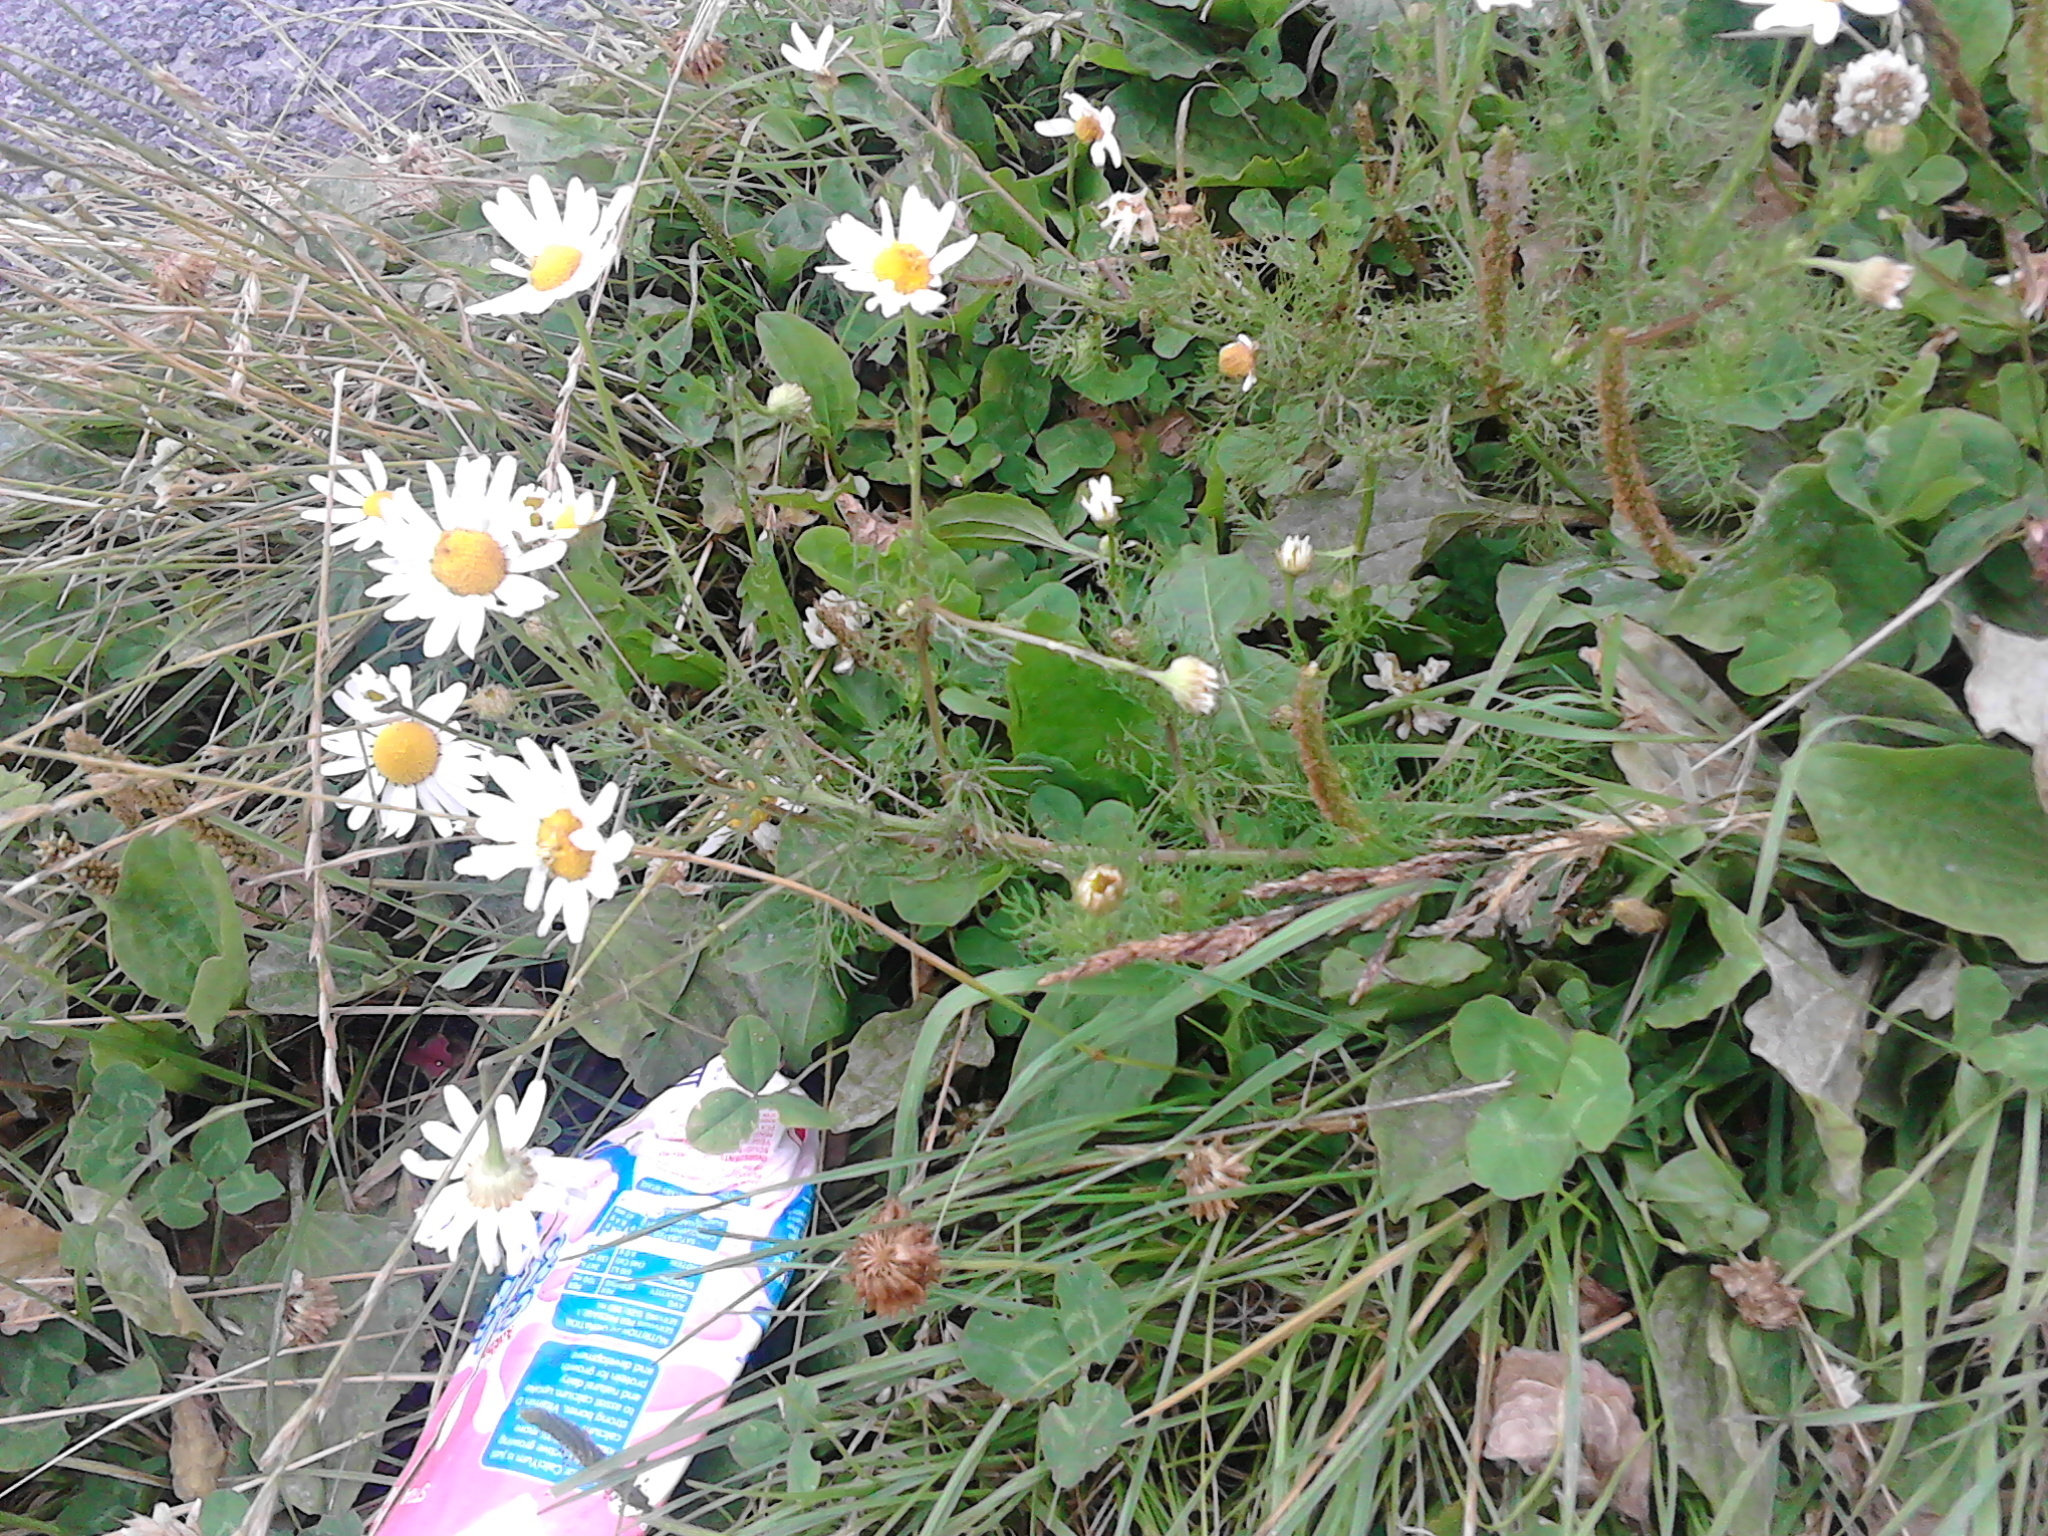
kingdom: Plantae
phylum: Tracheophyta
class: Magnoliopsida
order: Asterales
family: Asteraceae
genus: Anthemis
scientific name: Anthemis cotula
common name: Stinking chamomile
